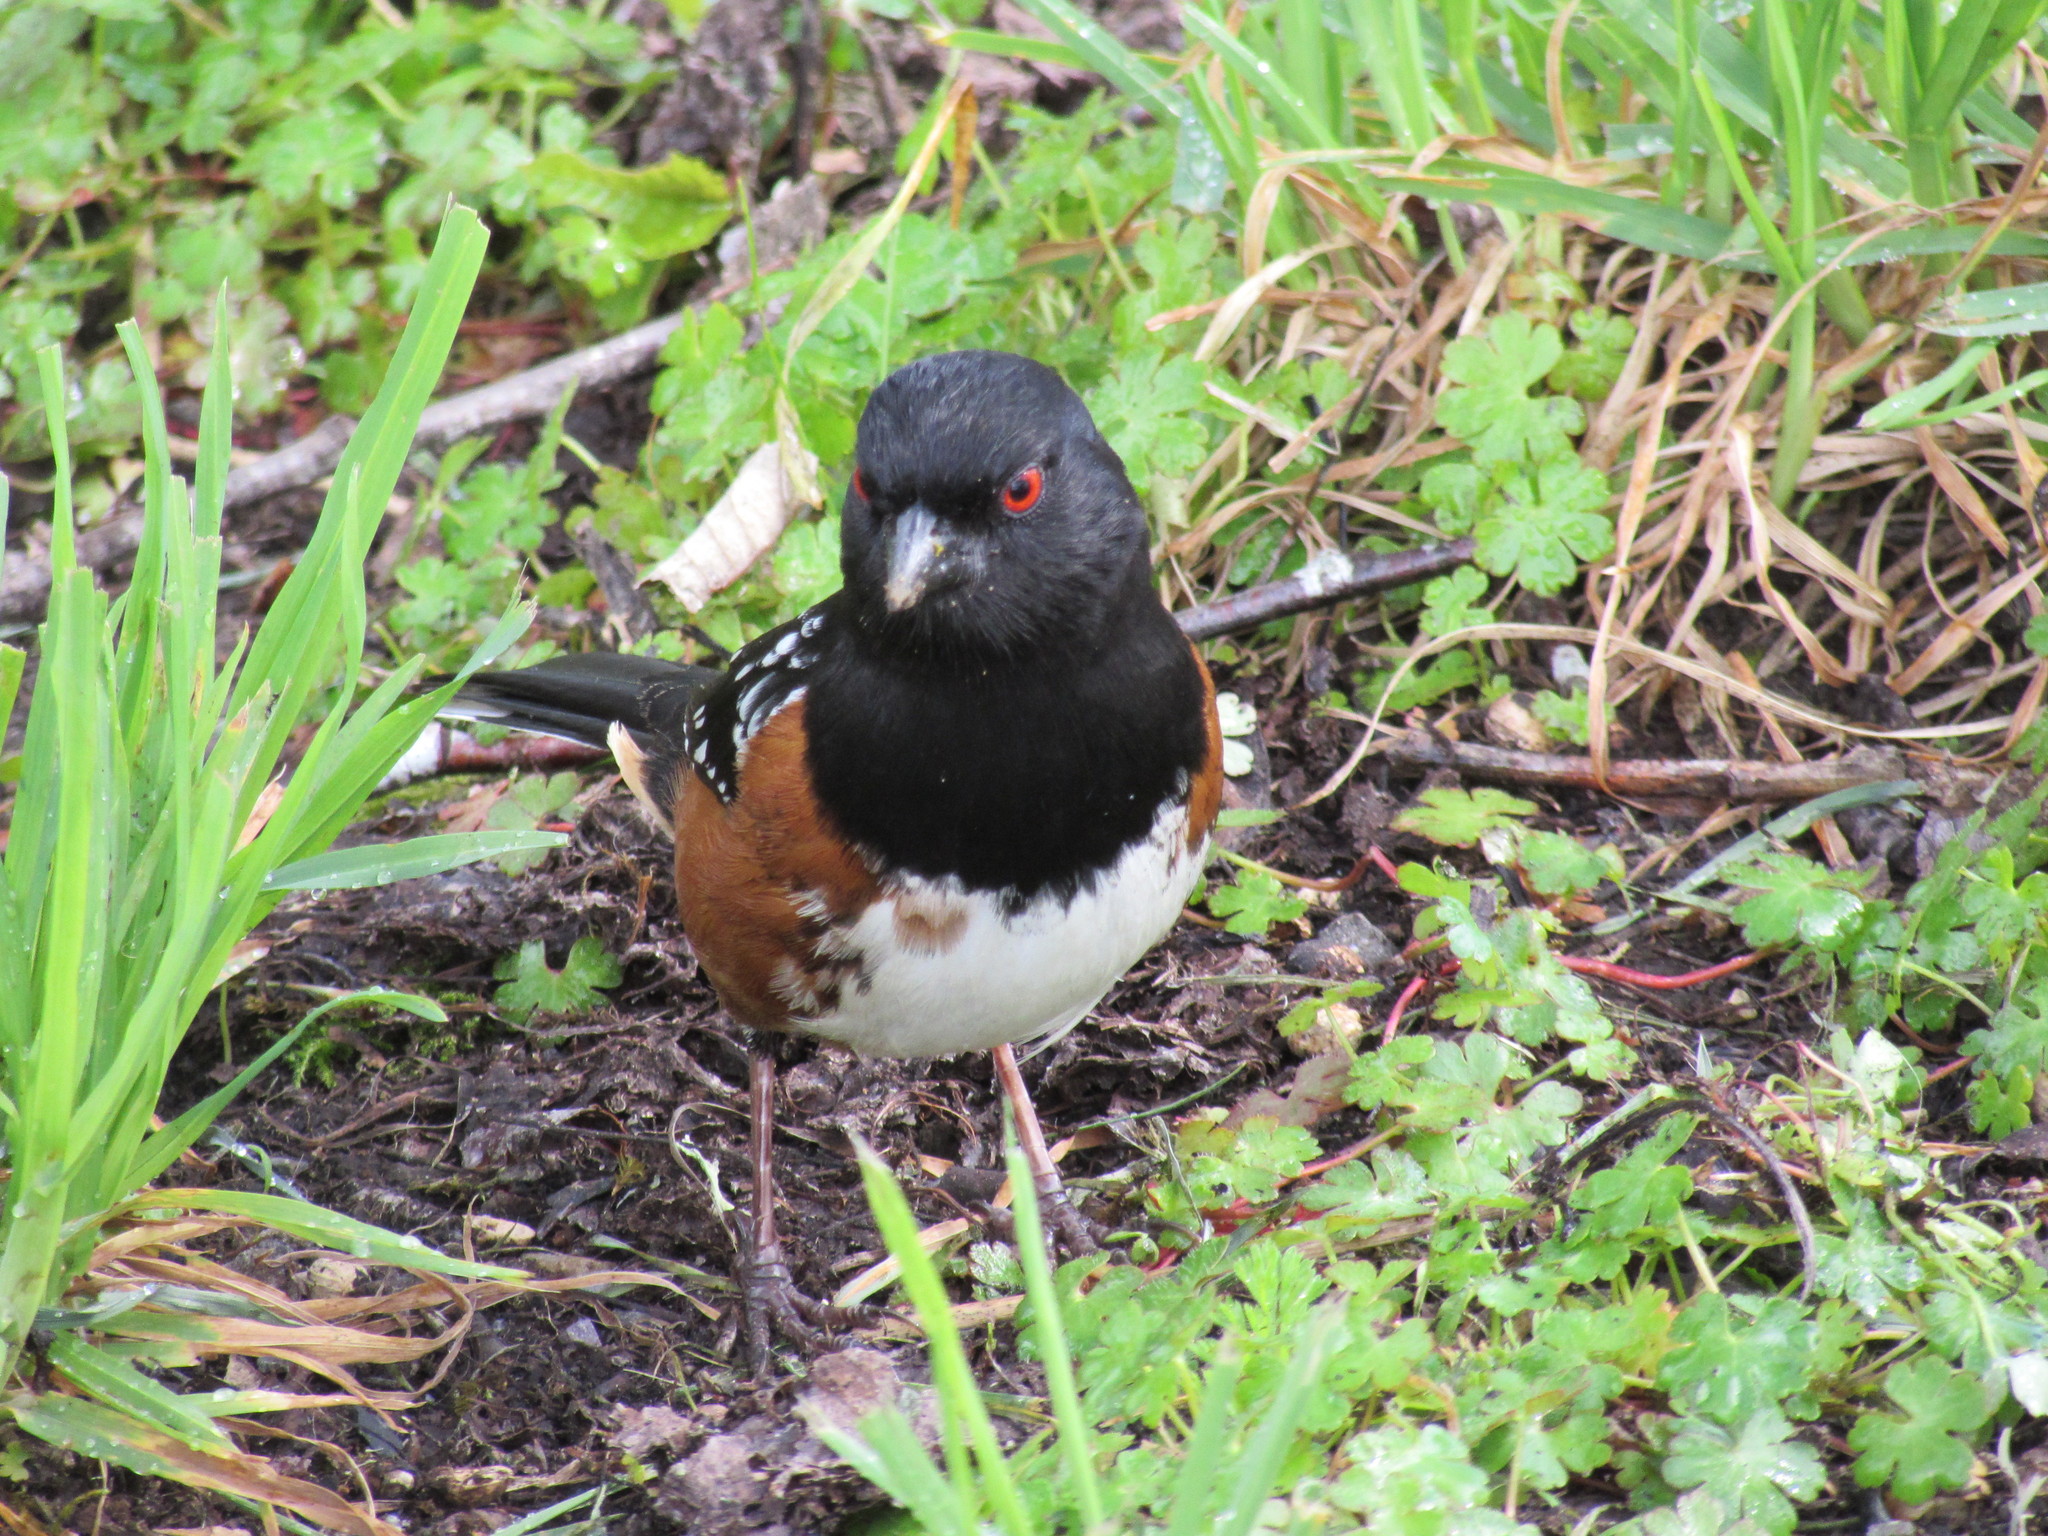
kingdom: Animalia
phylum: Chordata
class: Aves
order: Passeriformes
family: Passerellidae
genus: Pipilo
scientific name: Pipilo maculatus
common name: Spotted towhee
